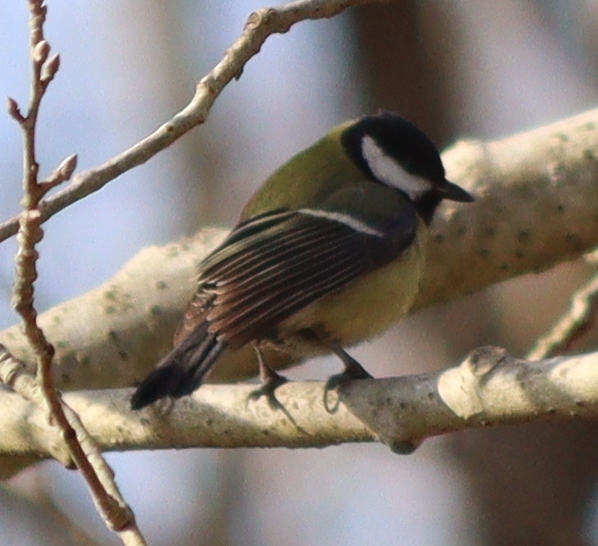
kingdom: Animalia
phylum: Chordata
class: Aves
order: Passeriformes
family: Paridae
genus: Parus
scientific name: Parus major
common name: Great tit
